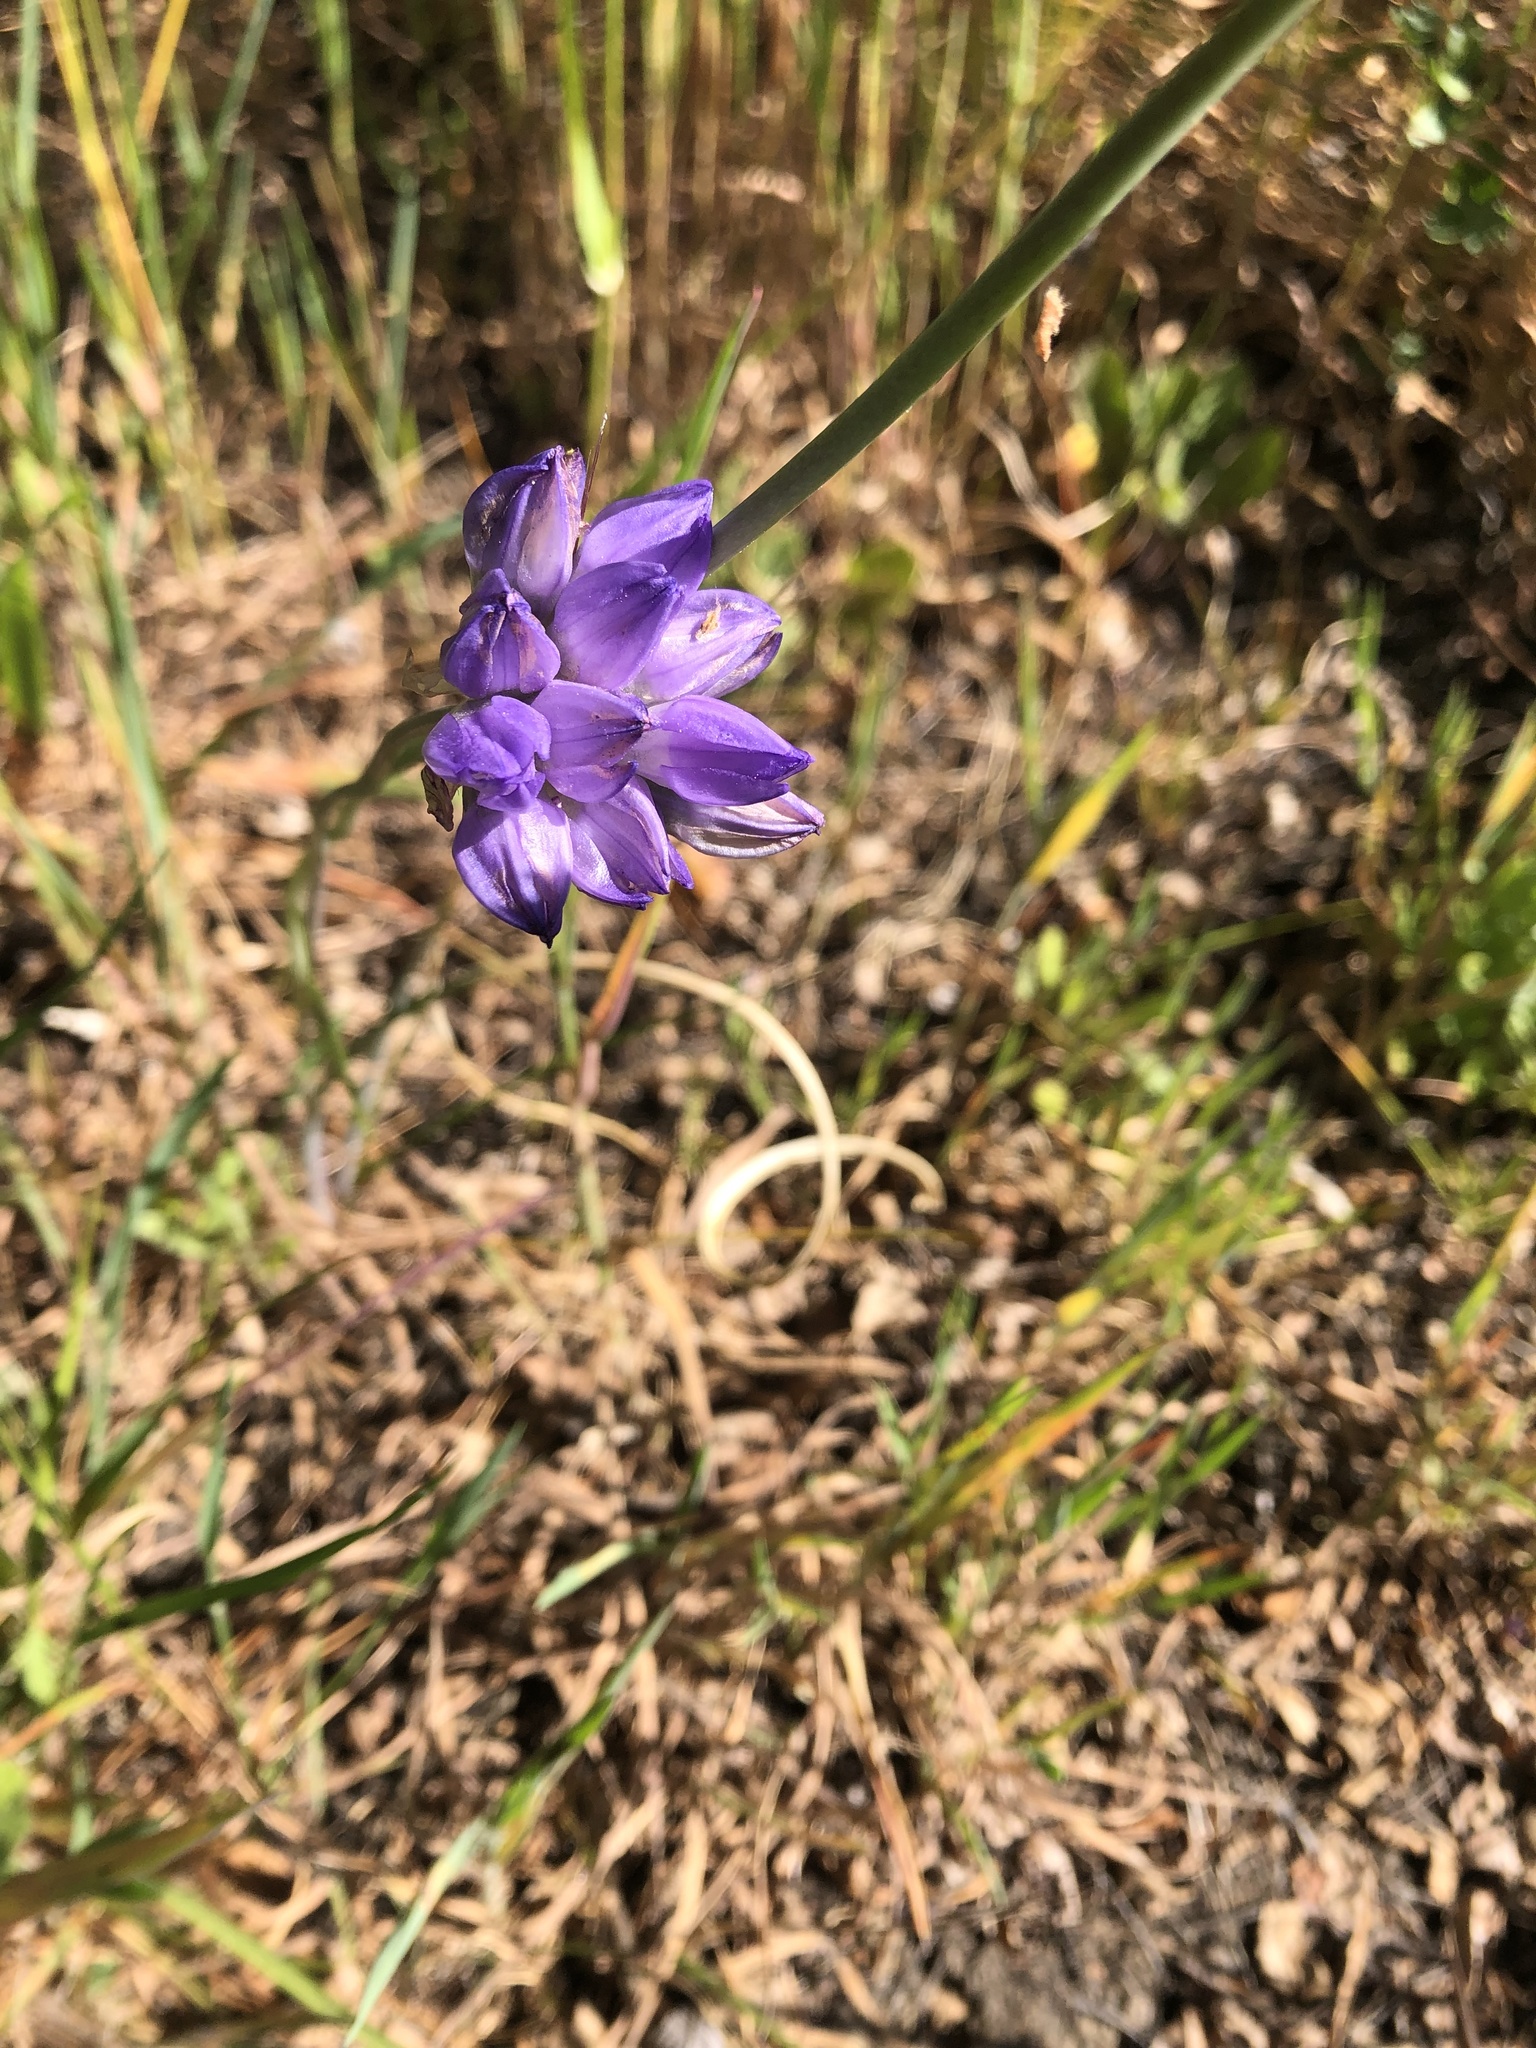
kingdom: Plantae
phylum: Tracheophyta
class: Liliopsida
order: Asparagales
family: Asparagaceae
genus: Dipterostemon
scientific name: Dipterostemon capitatus
